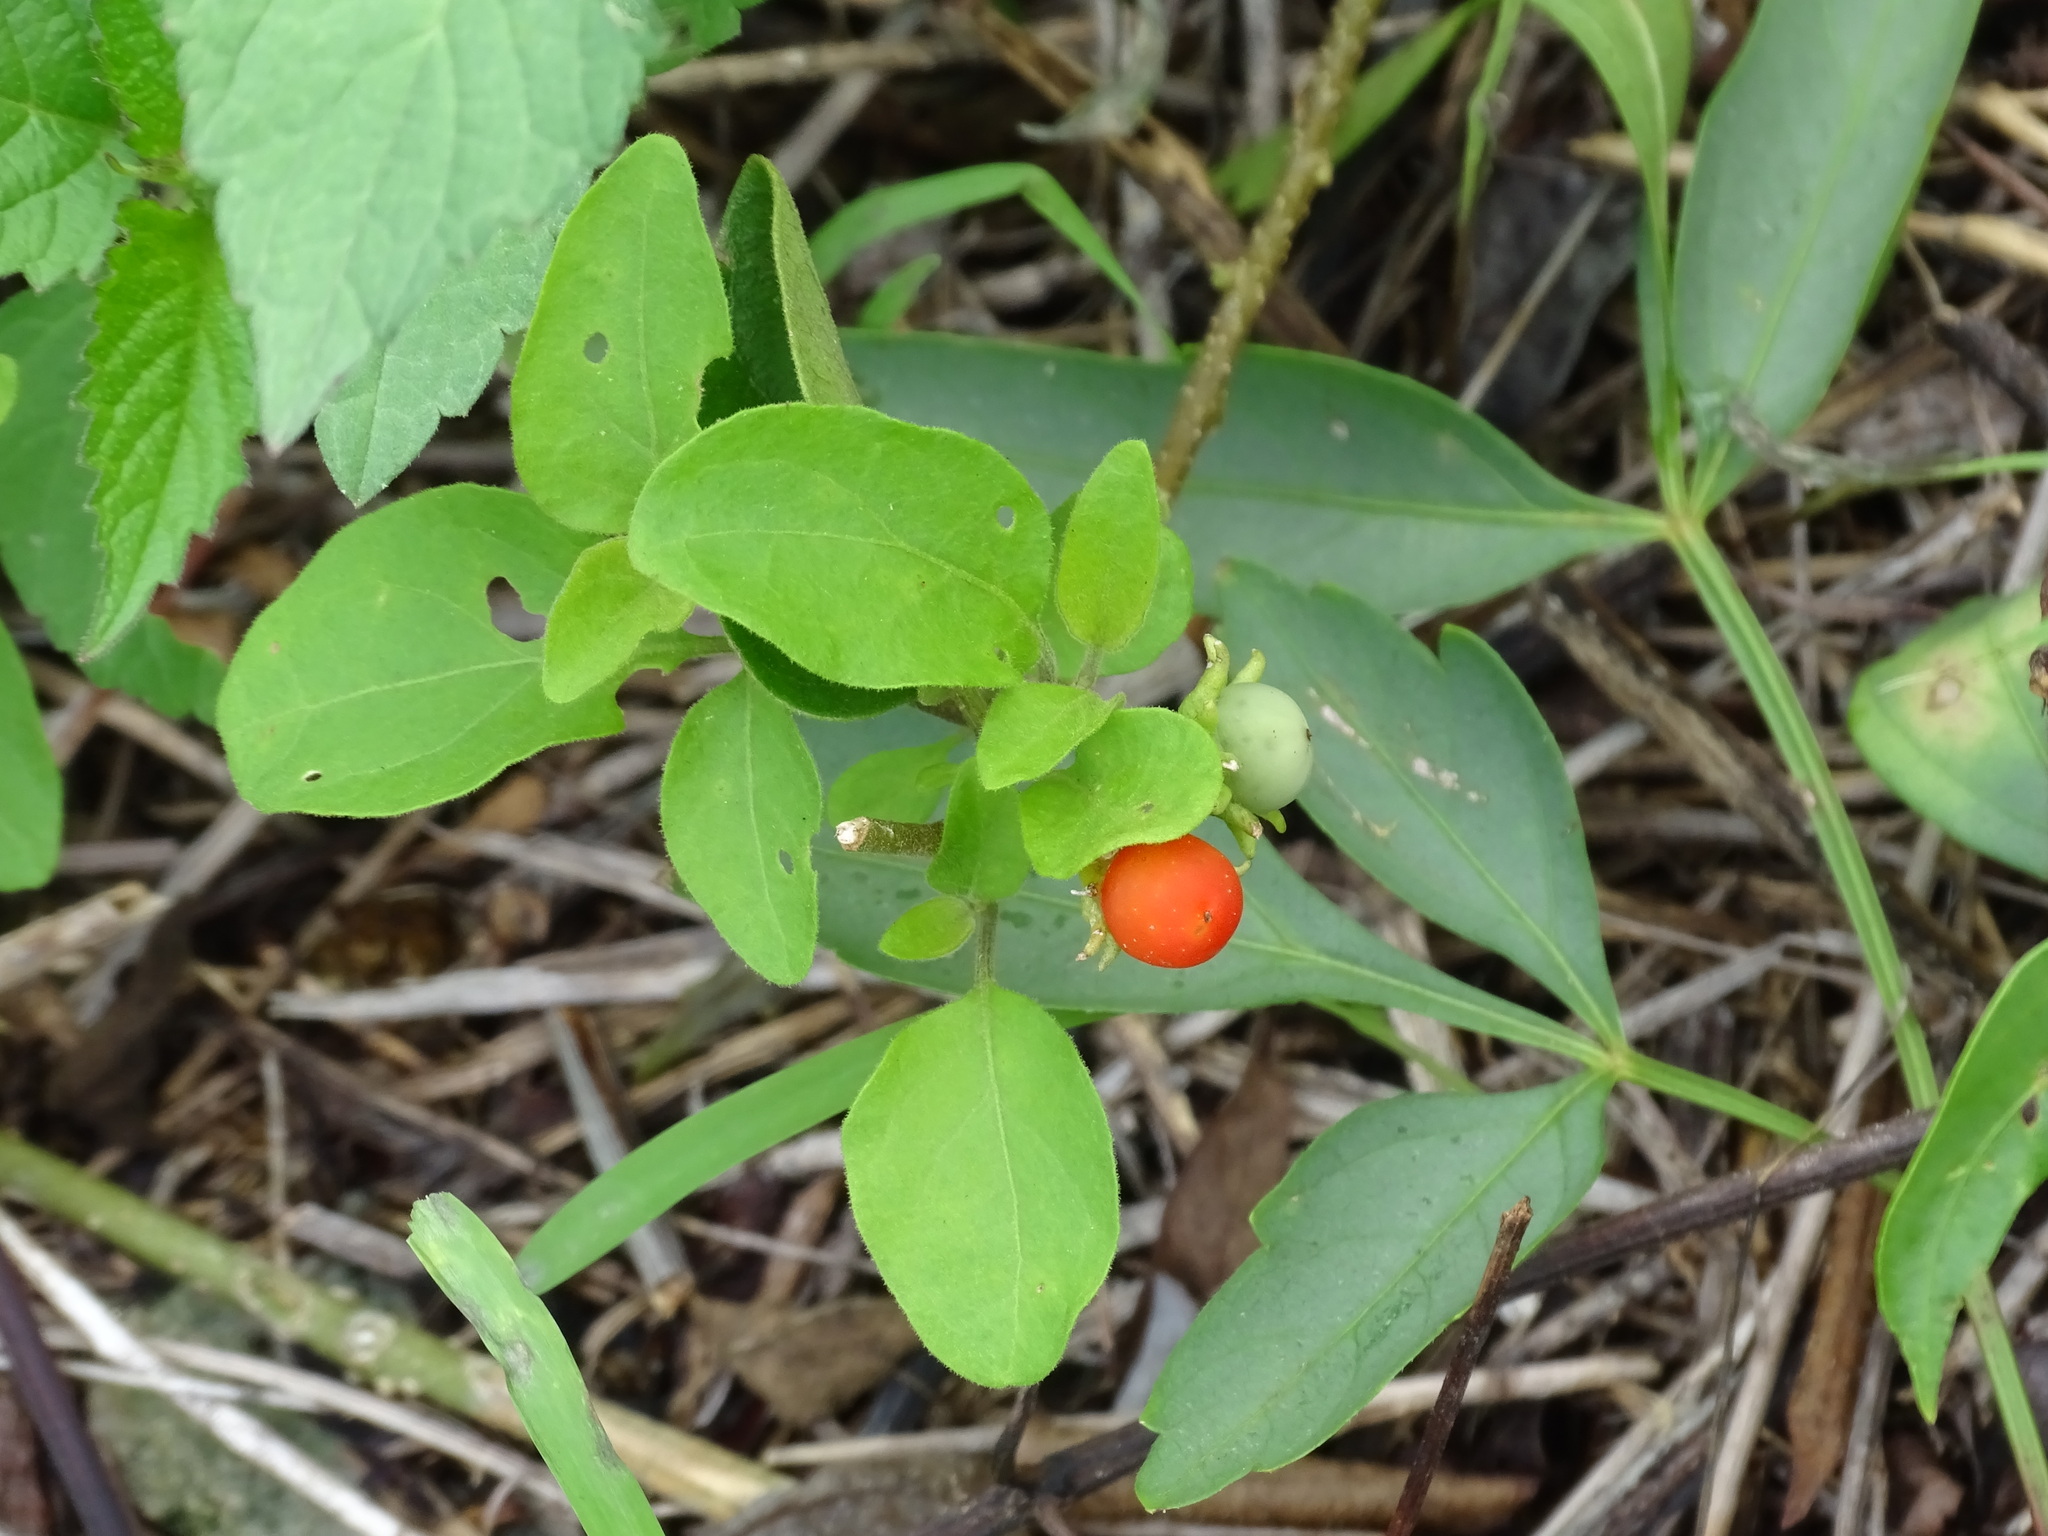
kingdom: Plantae
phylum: Tracheophyta
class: Magnoliopsida
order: Solanales
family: Solanaceae
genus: Lycianthes
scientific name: Lycianthes scandens
